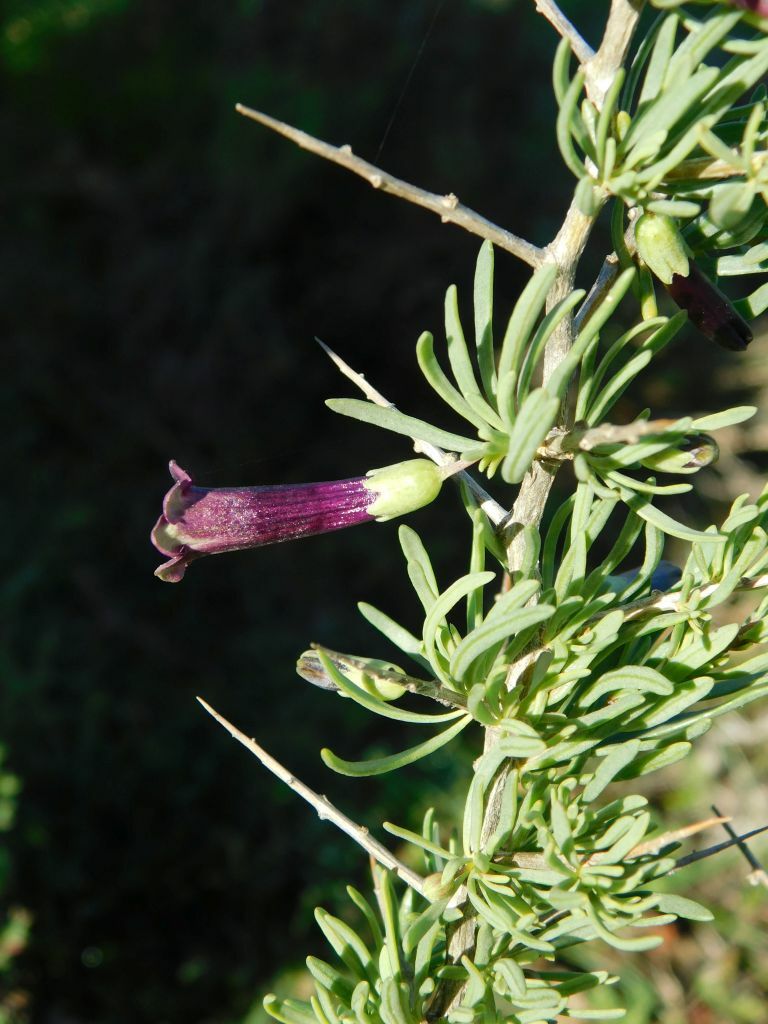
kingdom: Plantae
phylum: Tracheophyta
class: Magnoliopsida
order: Solanales
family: Solanaceae
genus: Lycium
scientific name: Lycium afrum
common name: Kaffir boxthorn
